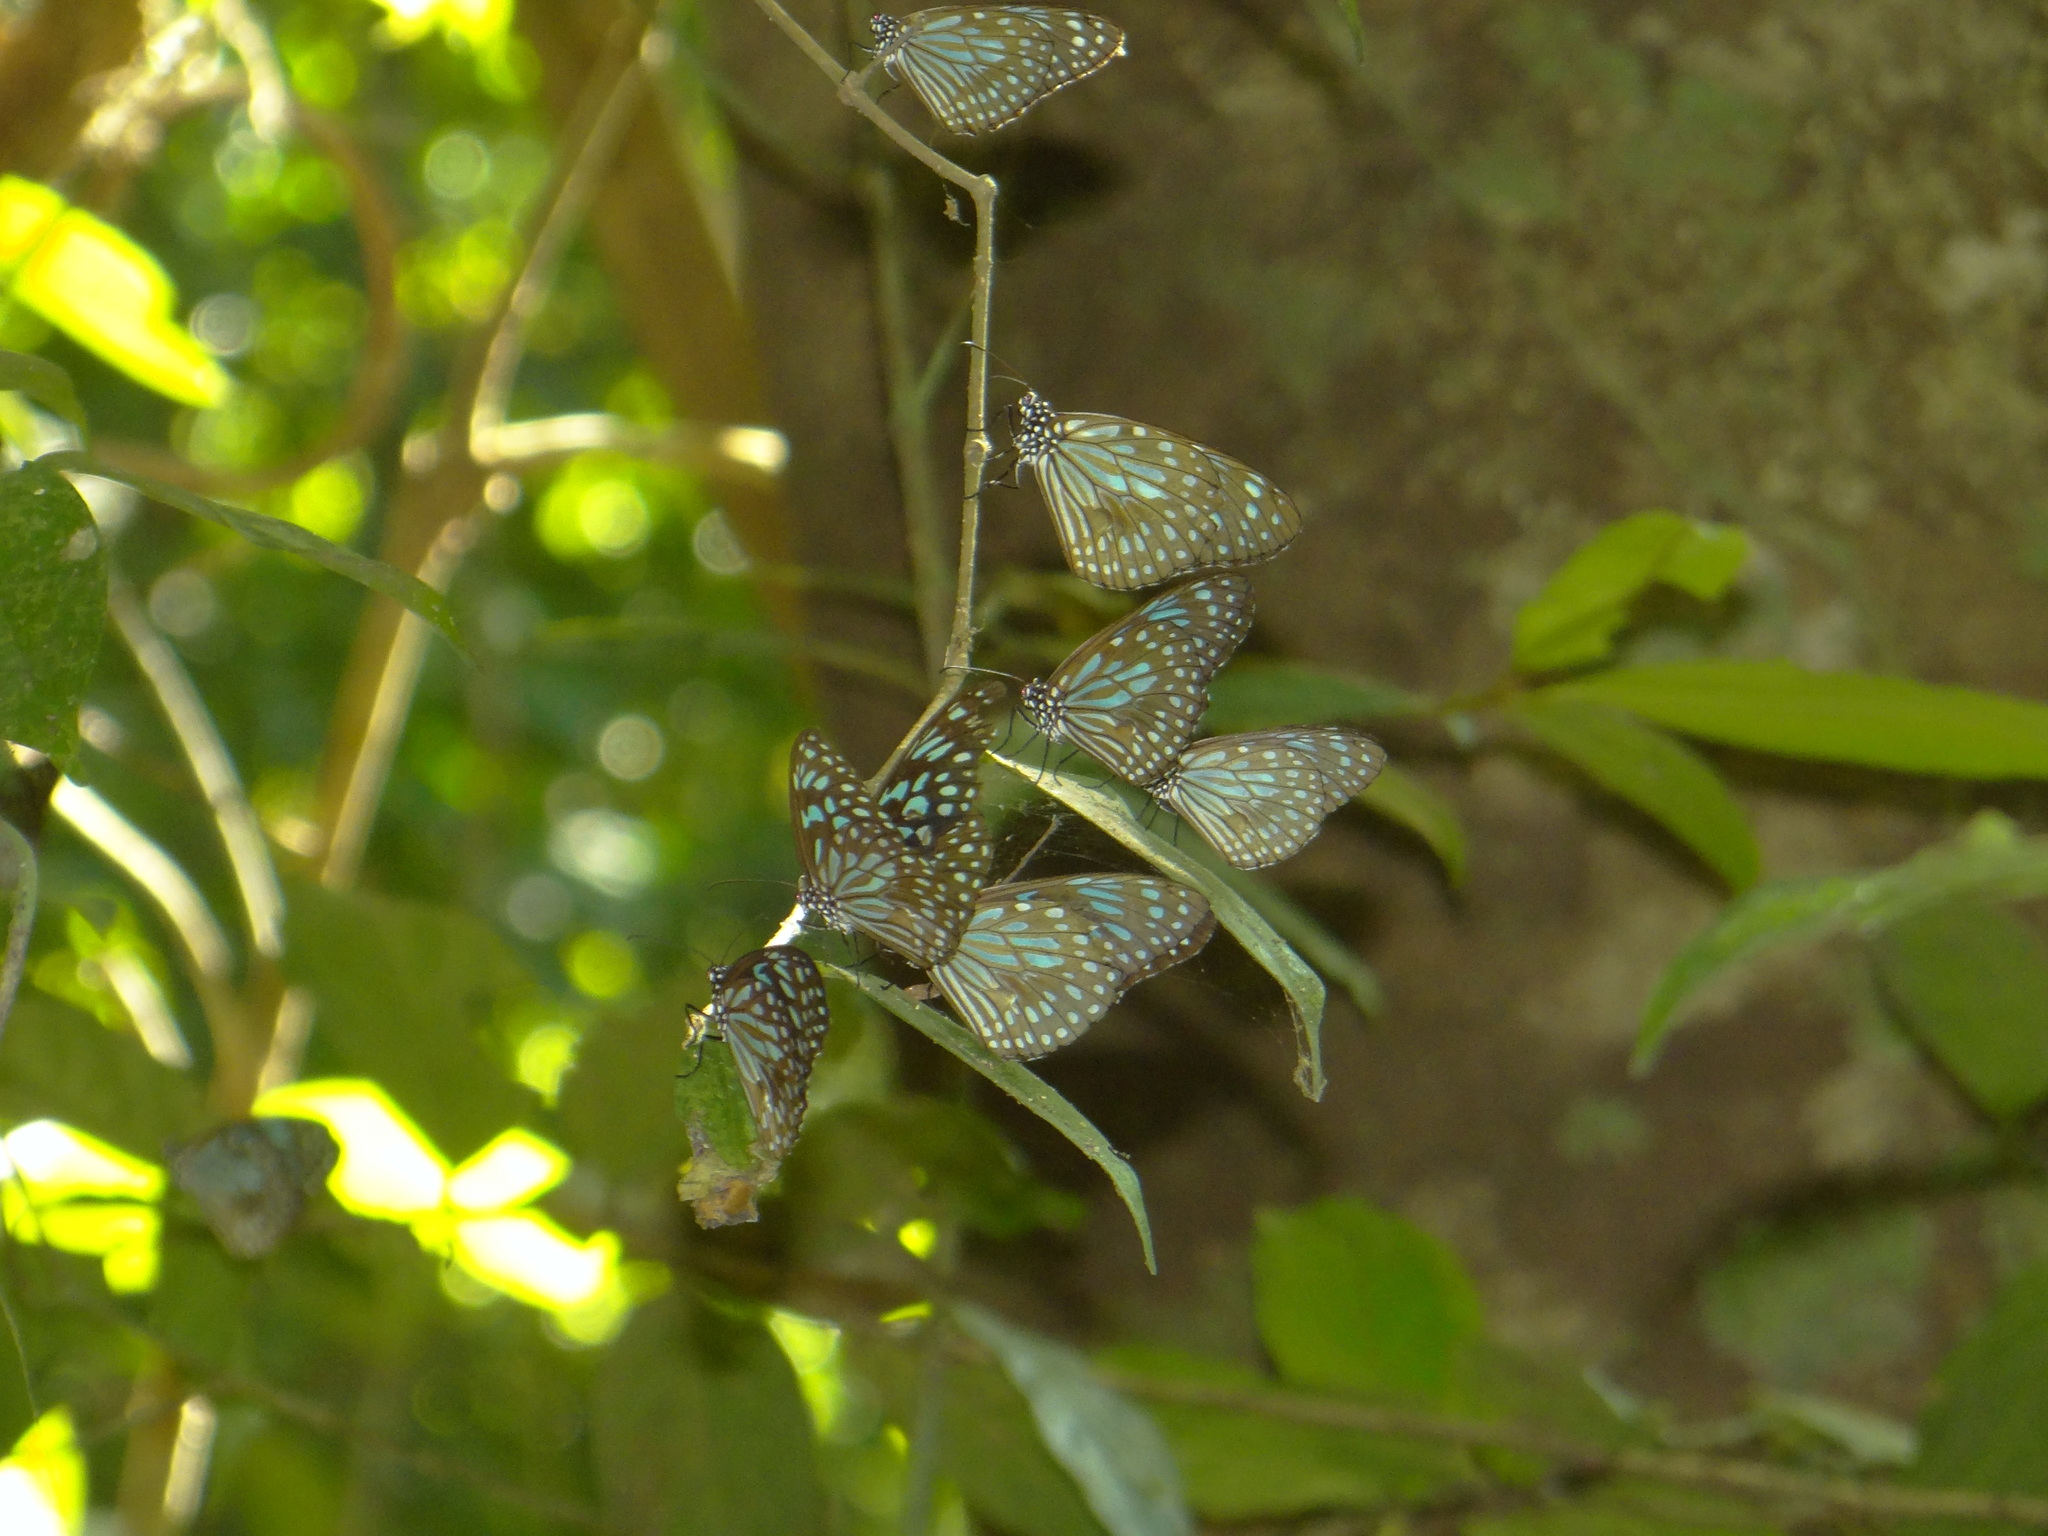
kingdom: Animalia
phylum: Arthropoda
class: Insecta
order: Lepidoptera
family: Nymphalidae
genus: Tirumala
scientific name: Tirumala septentrionis
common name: Dark blue tiger butterfly
